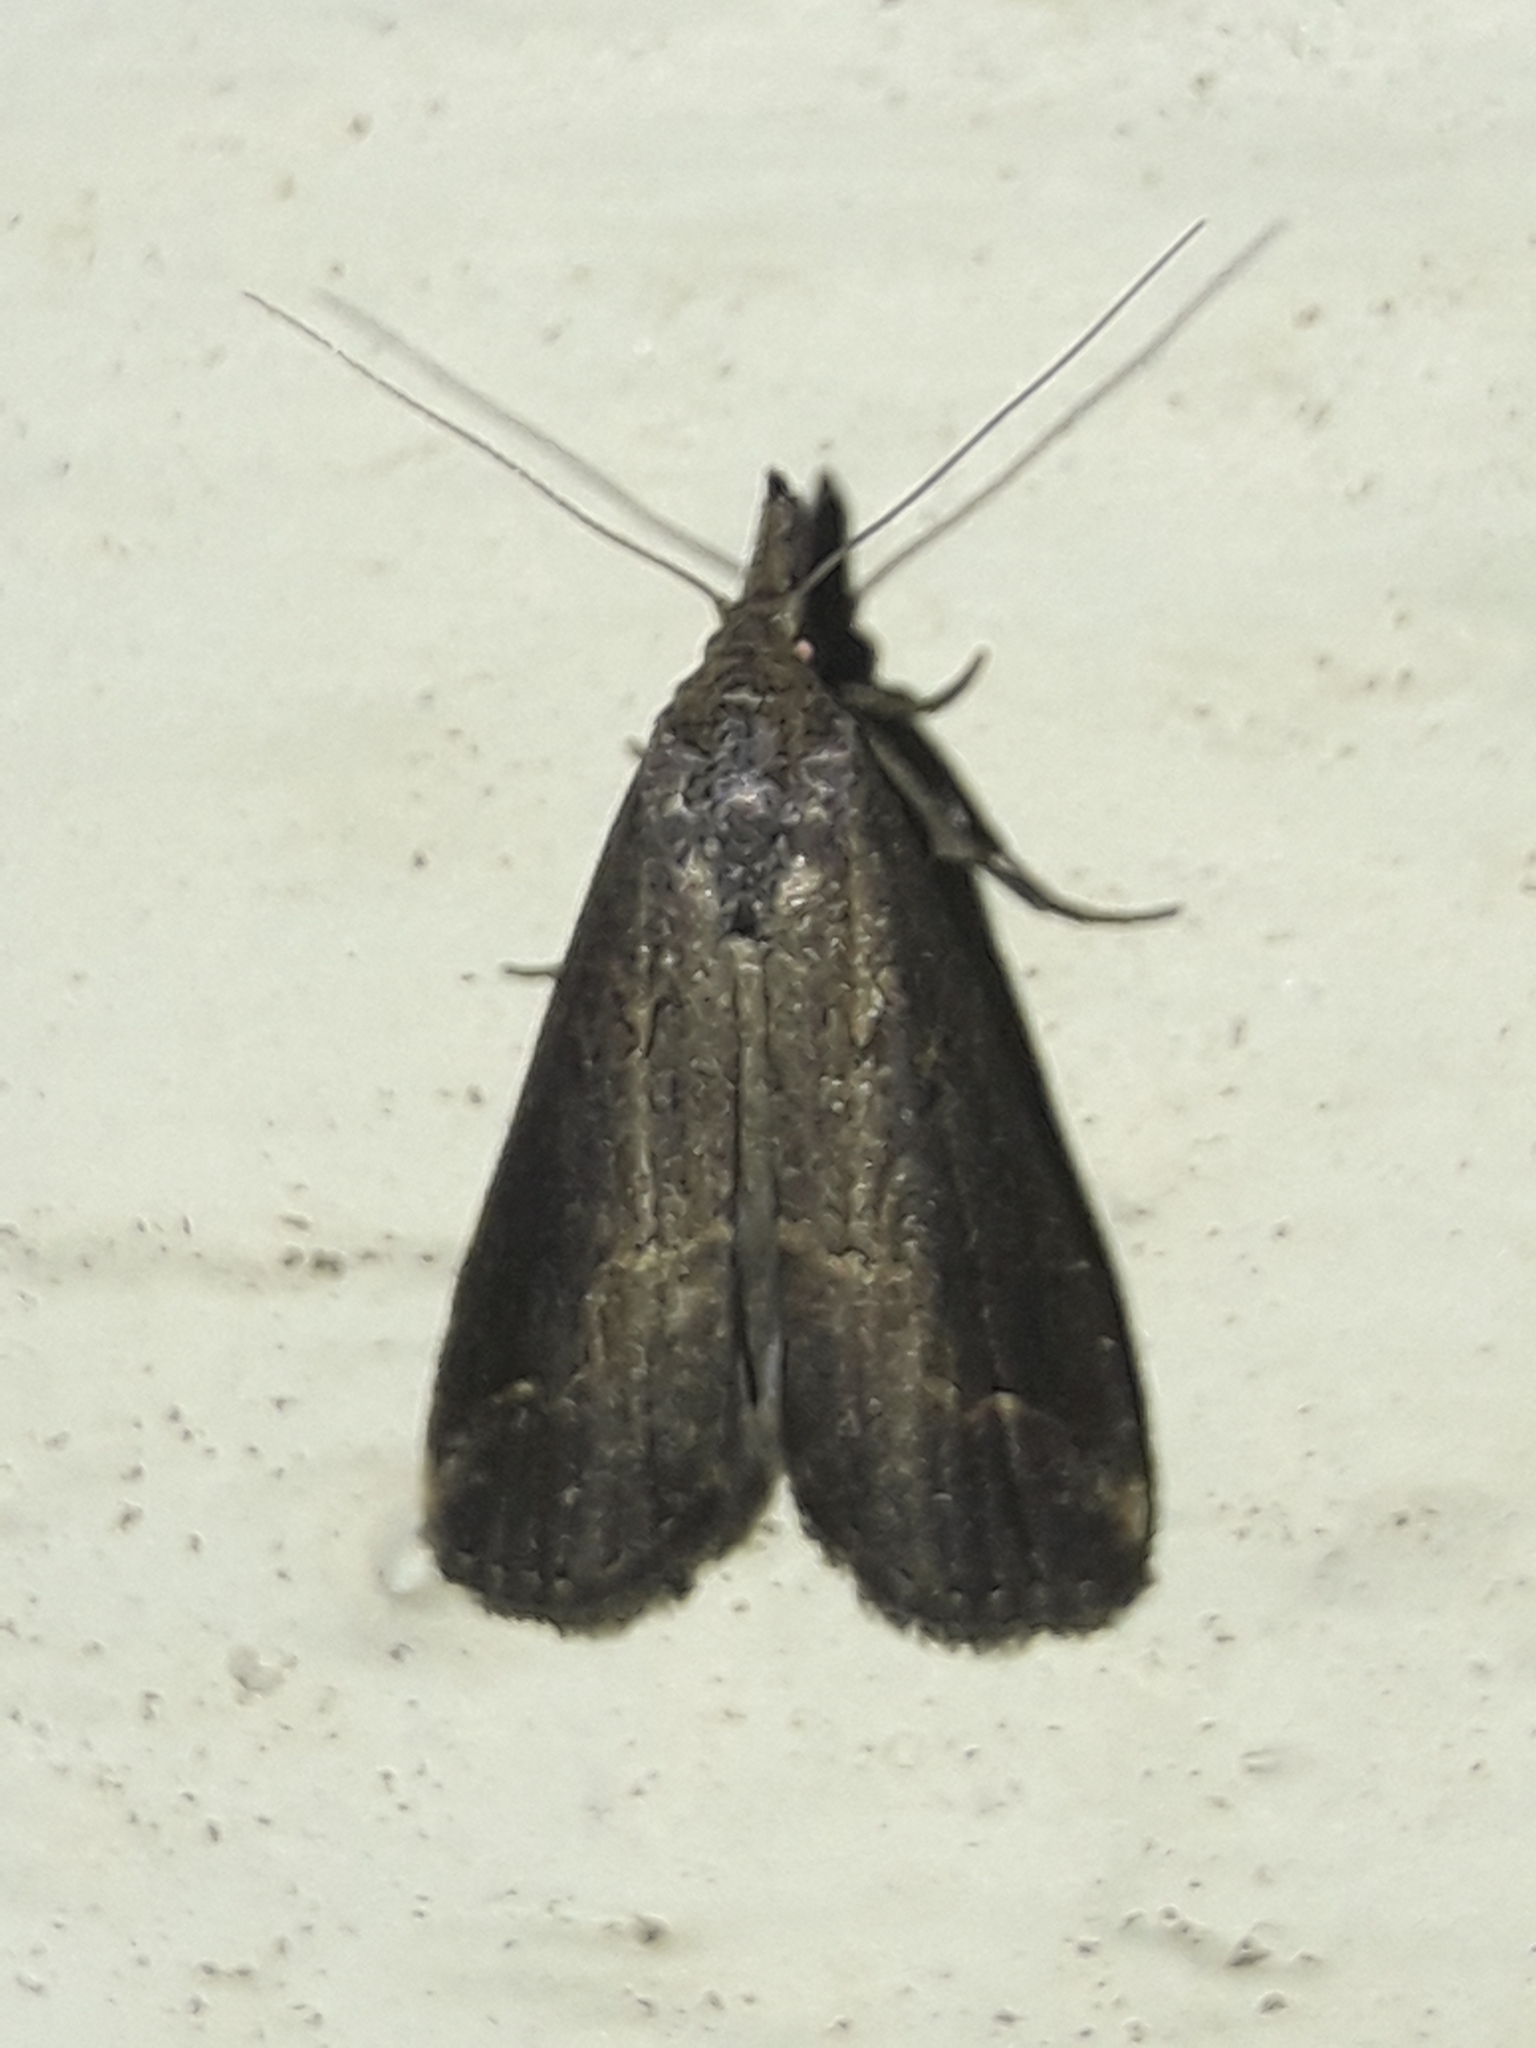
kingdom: Animalia
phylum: Arthropoda
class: Insecta
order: Lepidoptera
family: Erebidae
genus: Schrankia
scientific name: Schrankia costaestrigalis
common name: Pinion-streaked snout
